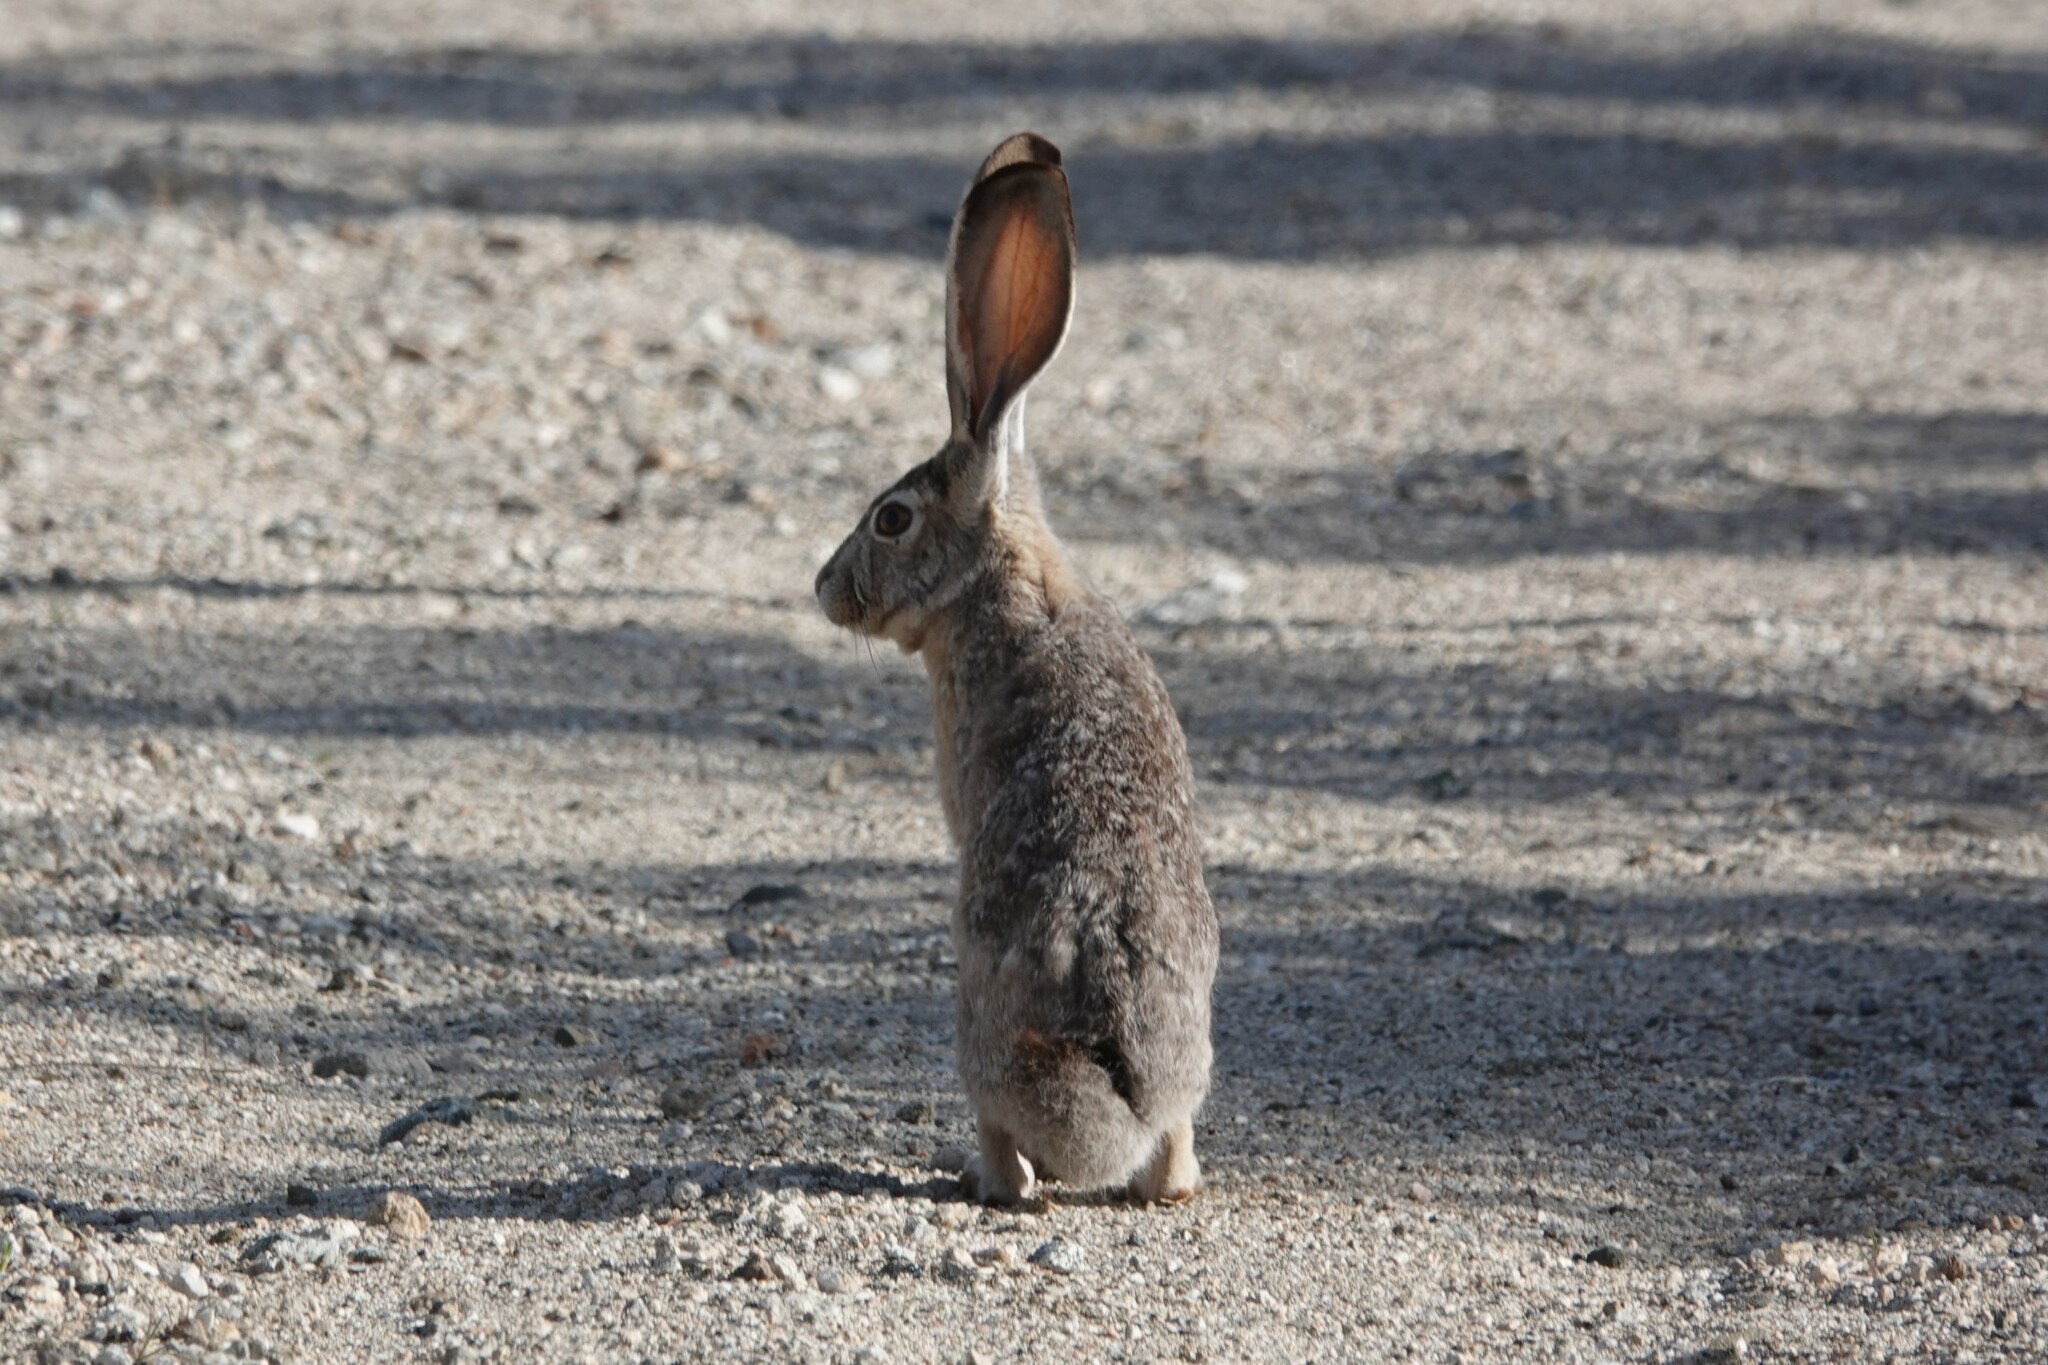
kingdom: Animalia
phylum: Chordata
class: Mammalia
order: Lagomorpha
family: Leporidae
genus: Lepus
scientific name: Lepus californicus
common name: Black-tailed jackrabbit
